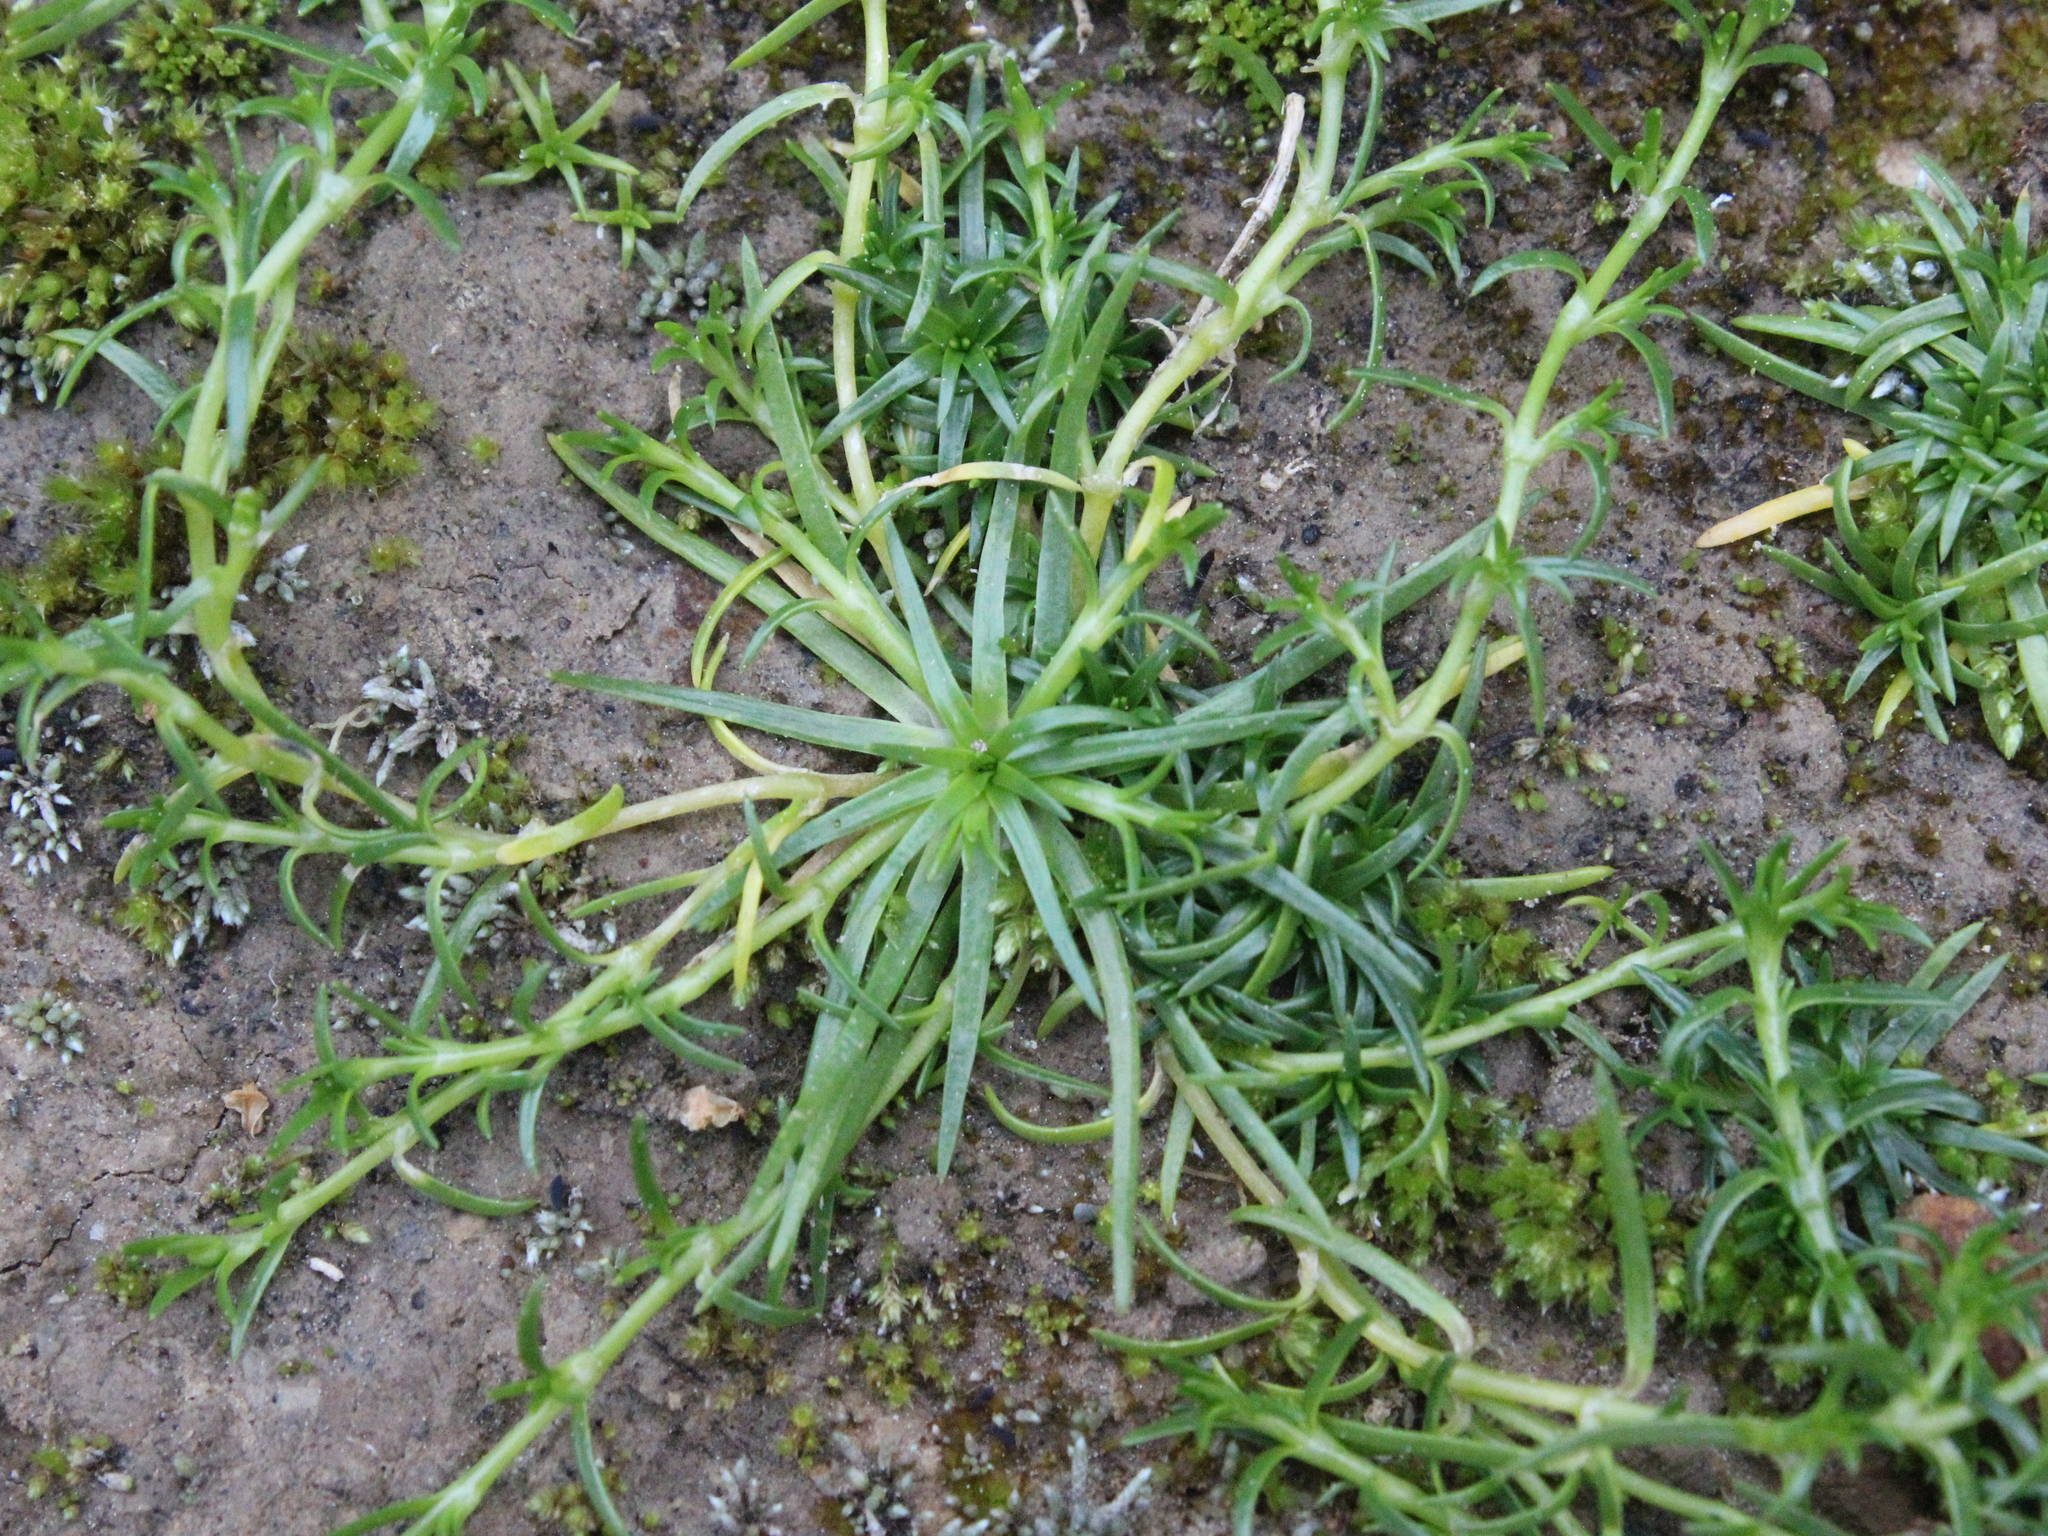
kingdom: Plantae
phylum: Tracheophyta
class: Magnoliopsida
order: Caryophyllales
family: Caryophyllaceae
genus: Sagina
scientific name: Sagina procumbens
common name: Procumbent pearlwort
